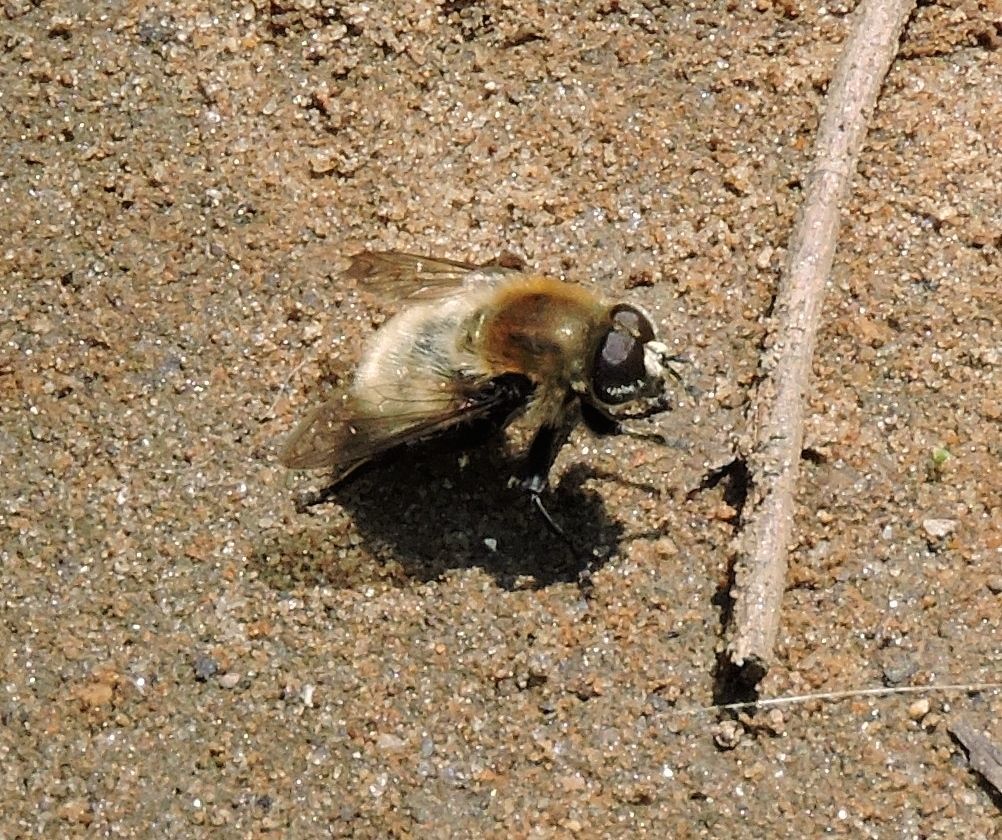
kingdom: Animalia
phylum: Arthropoda
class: Insecta
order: Diptera
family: Syrphidae
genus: Merodon
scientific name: Merodon equestris
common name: Greater bulb-fly
